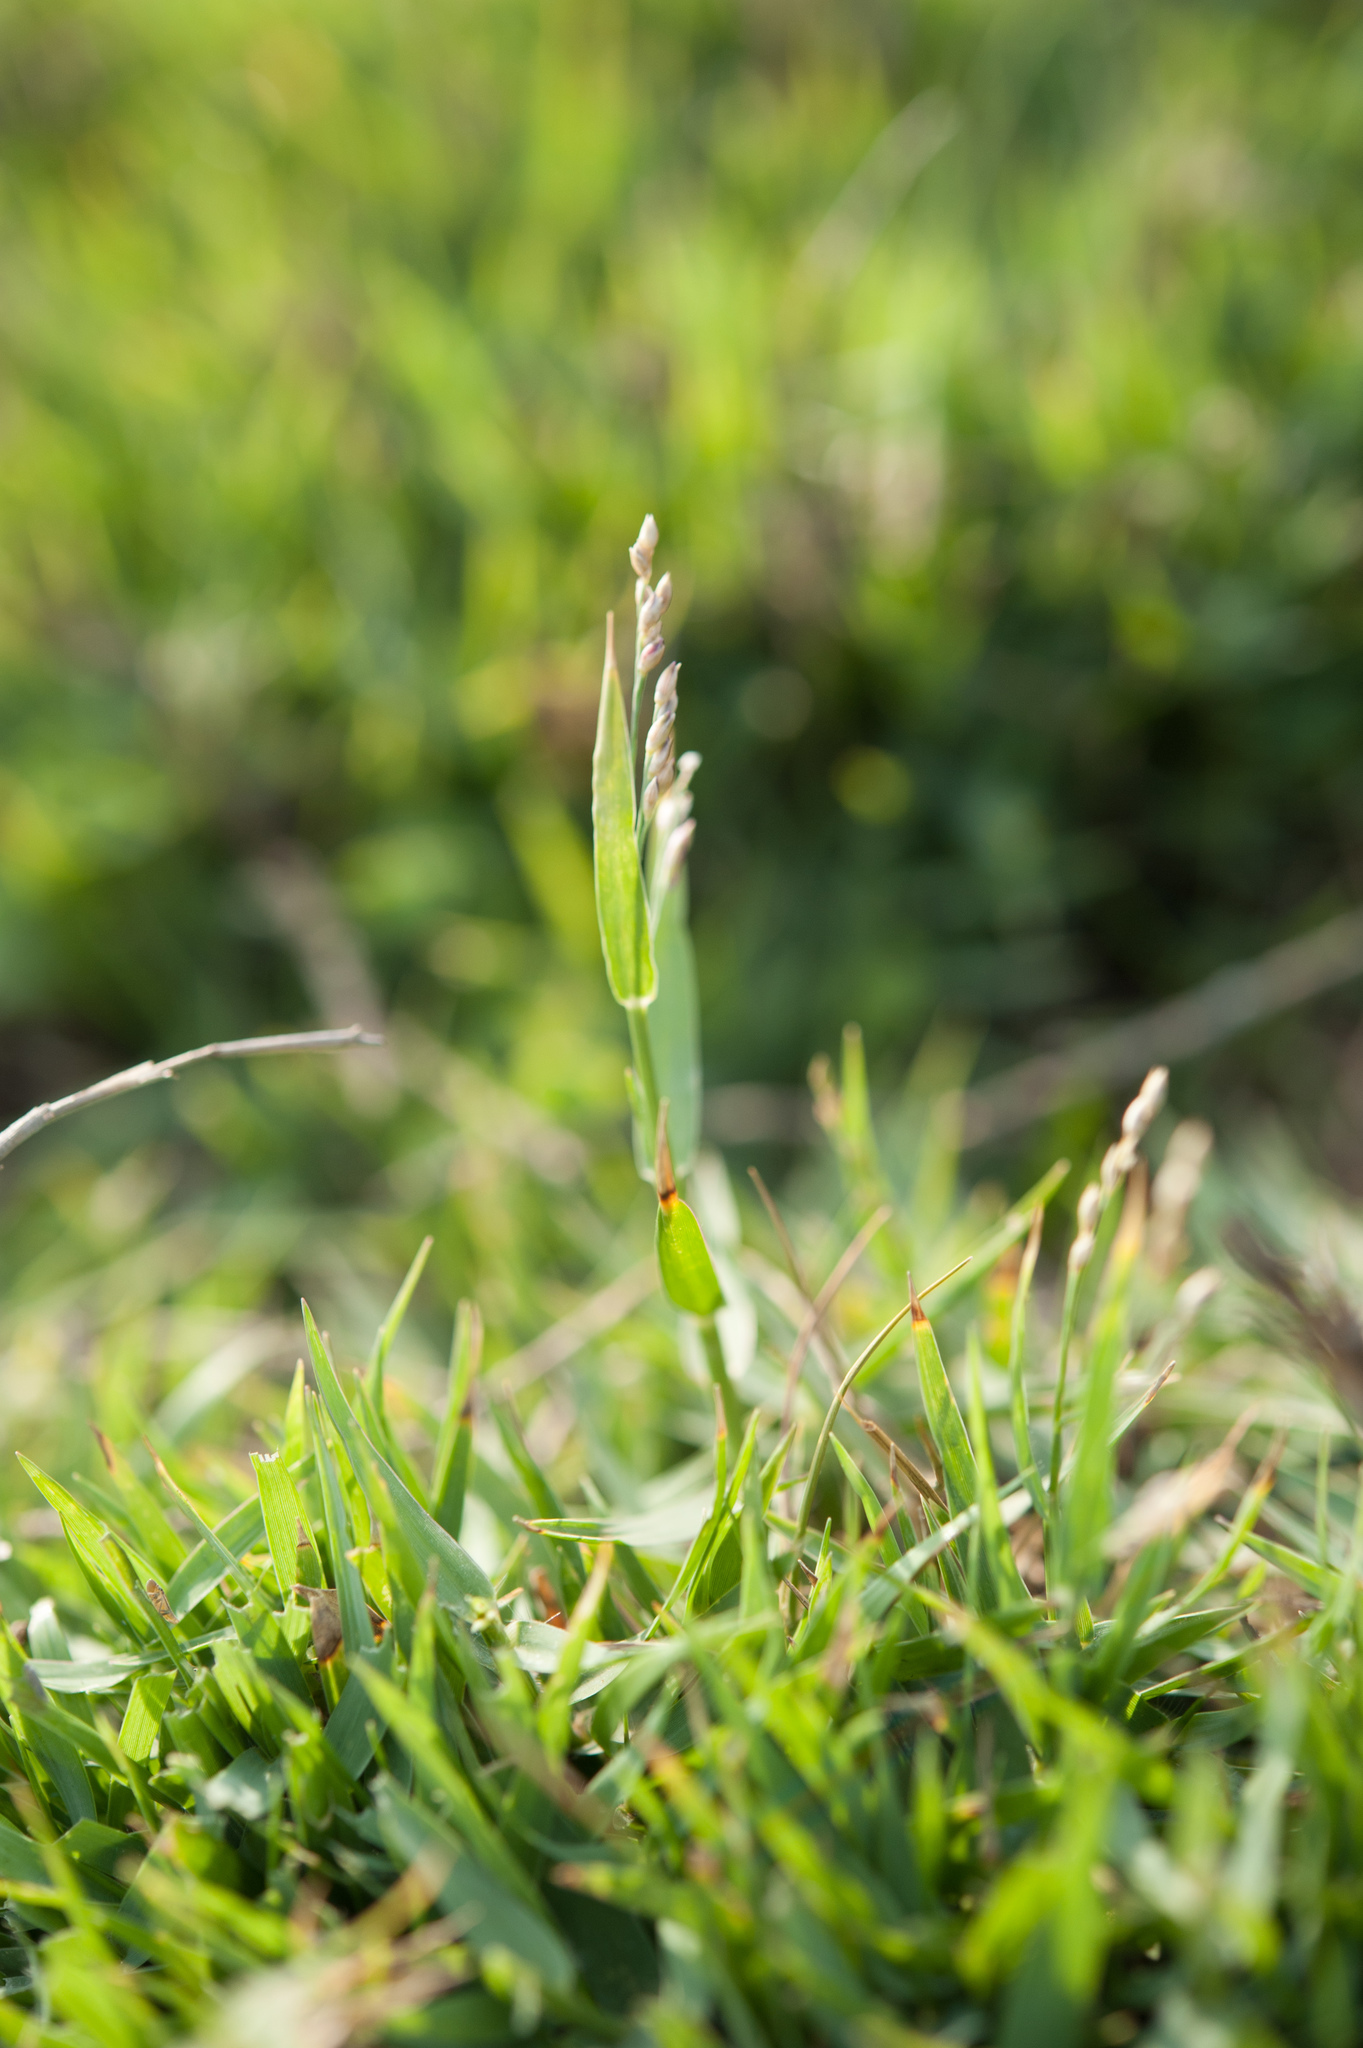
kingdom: Plantae
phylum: Tracheophyta
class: Liliopsida
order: Poales
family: Poaceae
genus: Urochloa
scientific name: Urochloa distachyos
